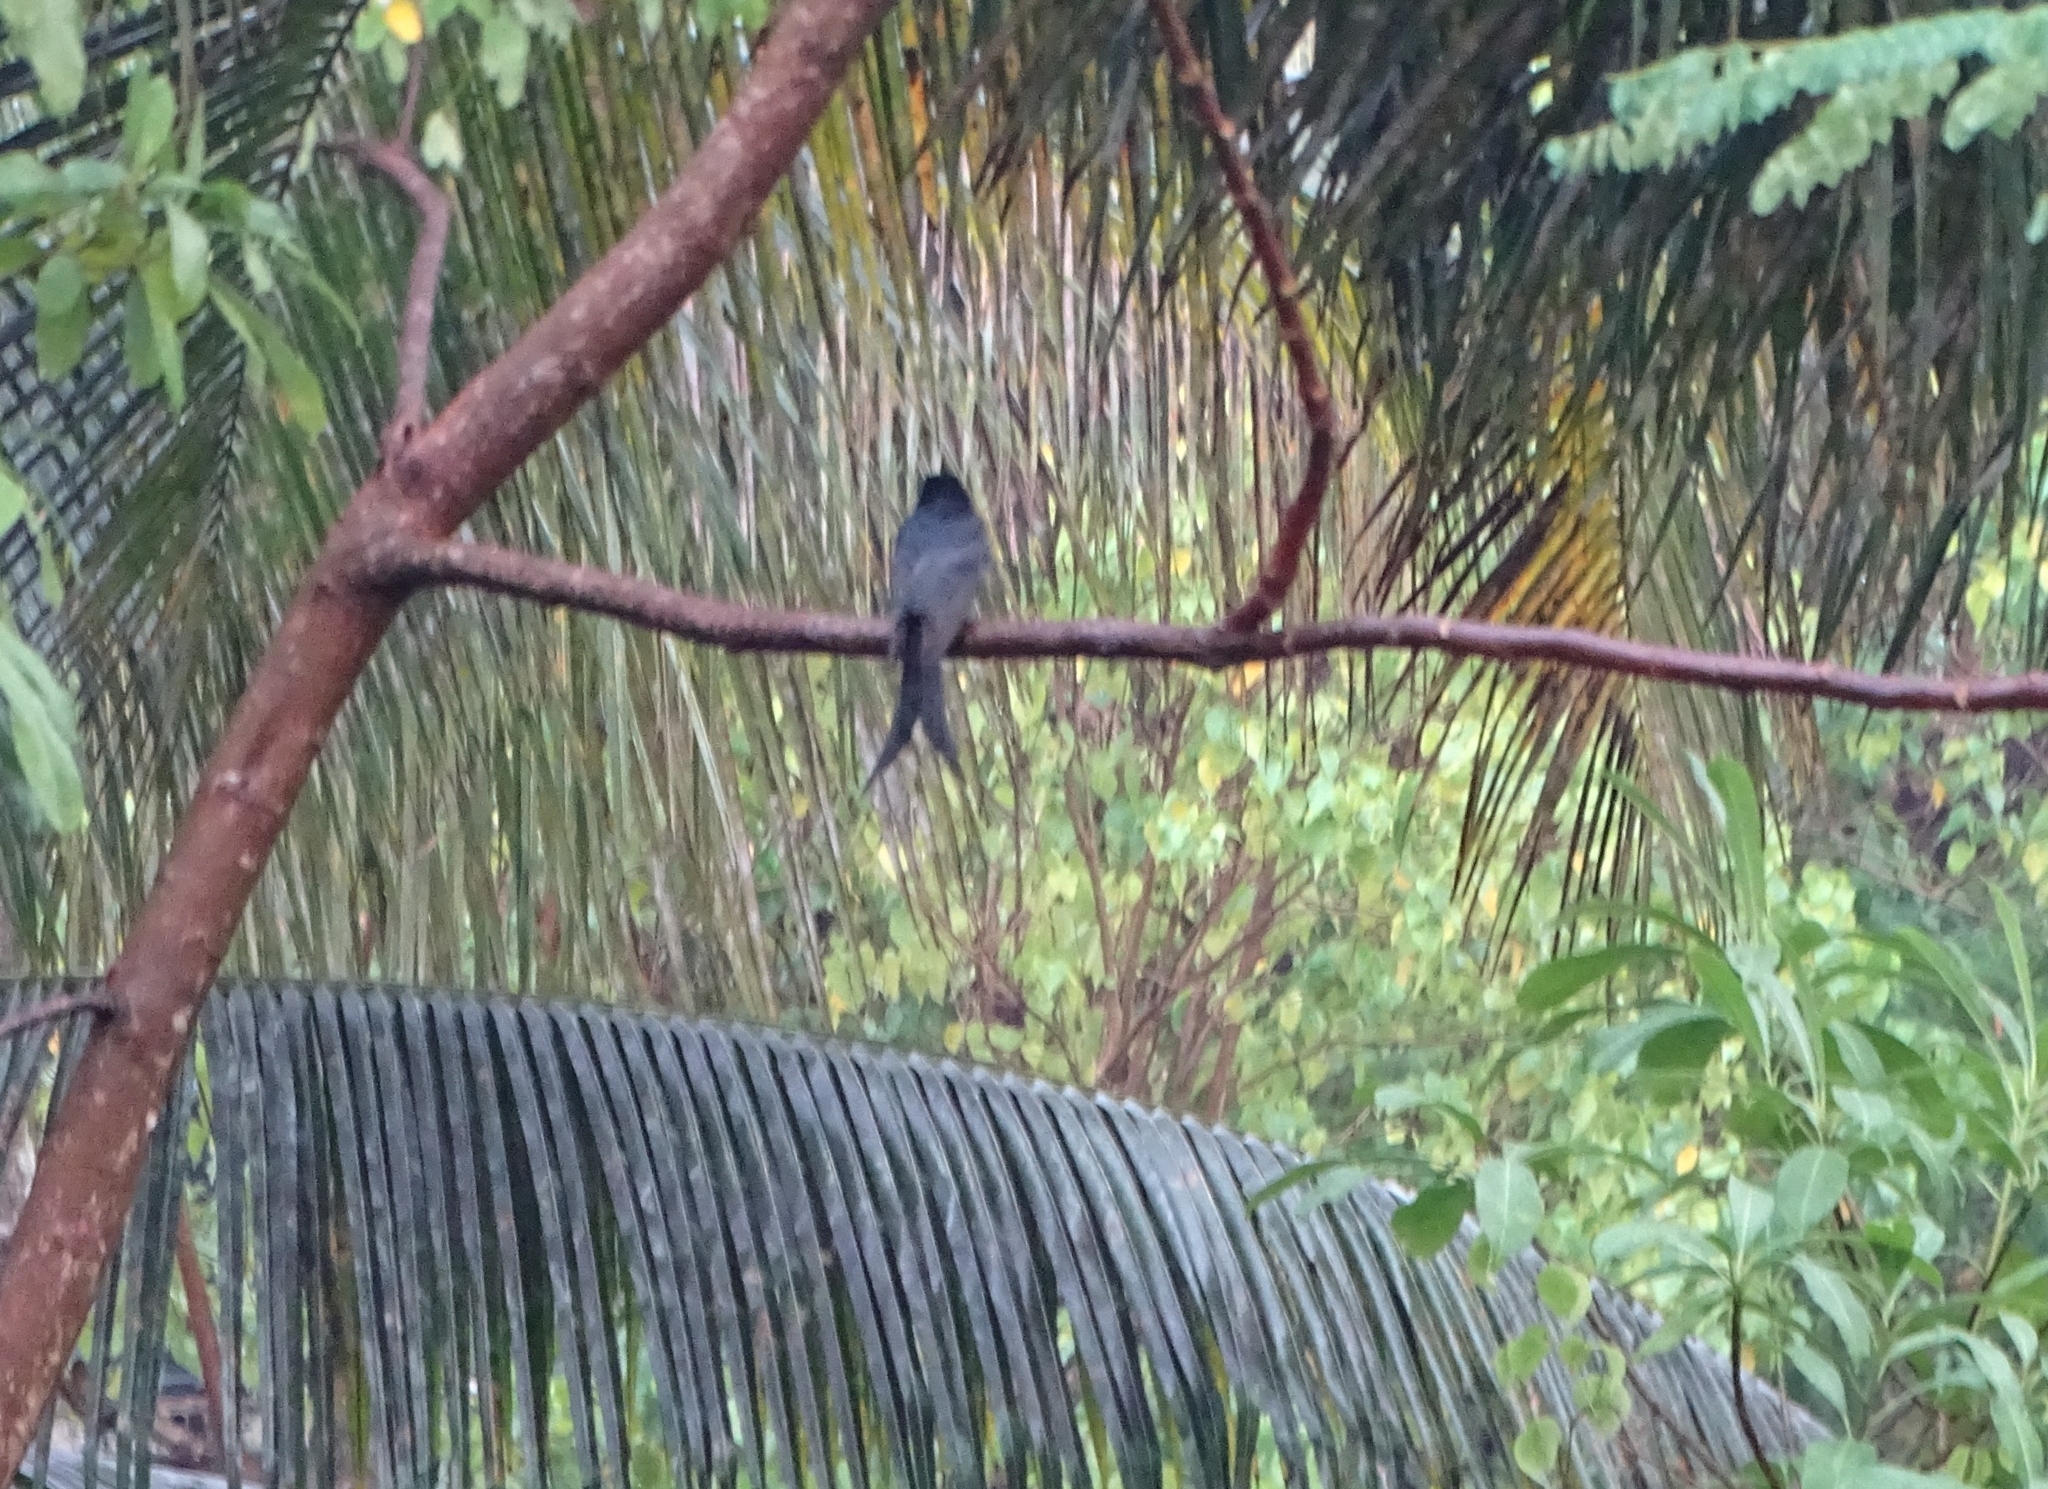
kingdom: Animalia
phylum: Chordata
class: Aves
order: Passeriformes
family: Dicruridae
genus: Dicrurus
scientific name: Dicrurus macrocercus
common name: Black drongo
